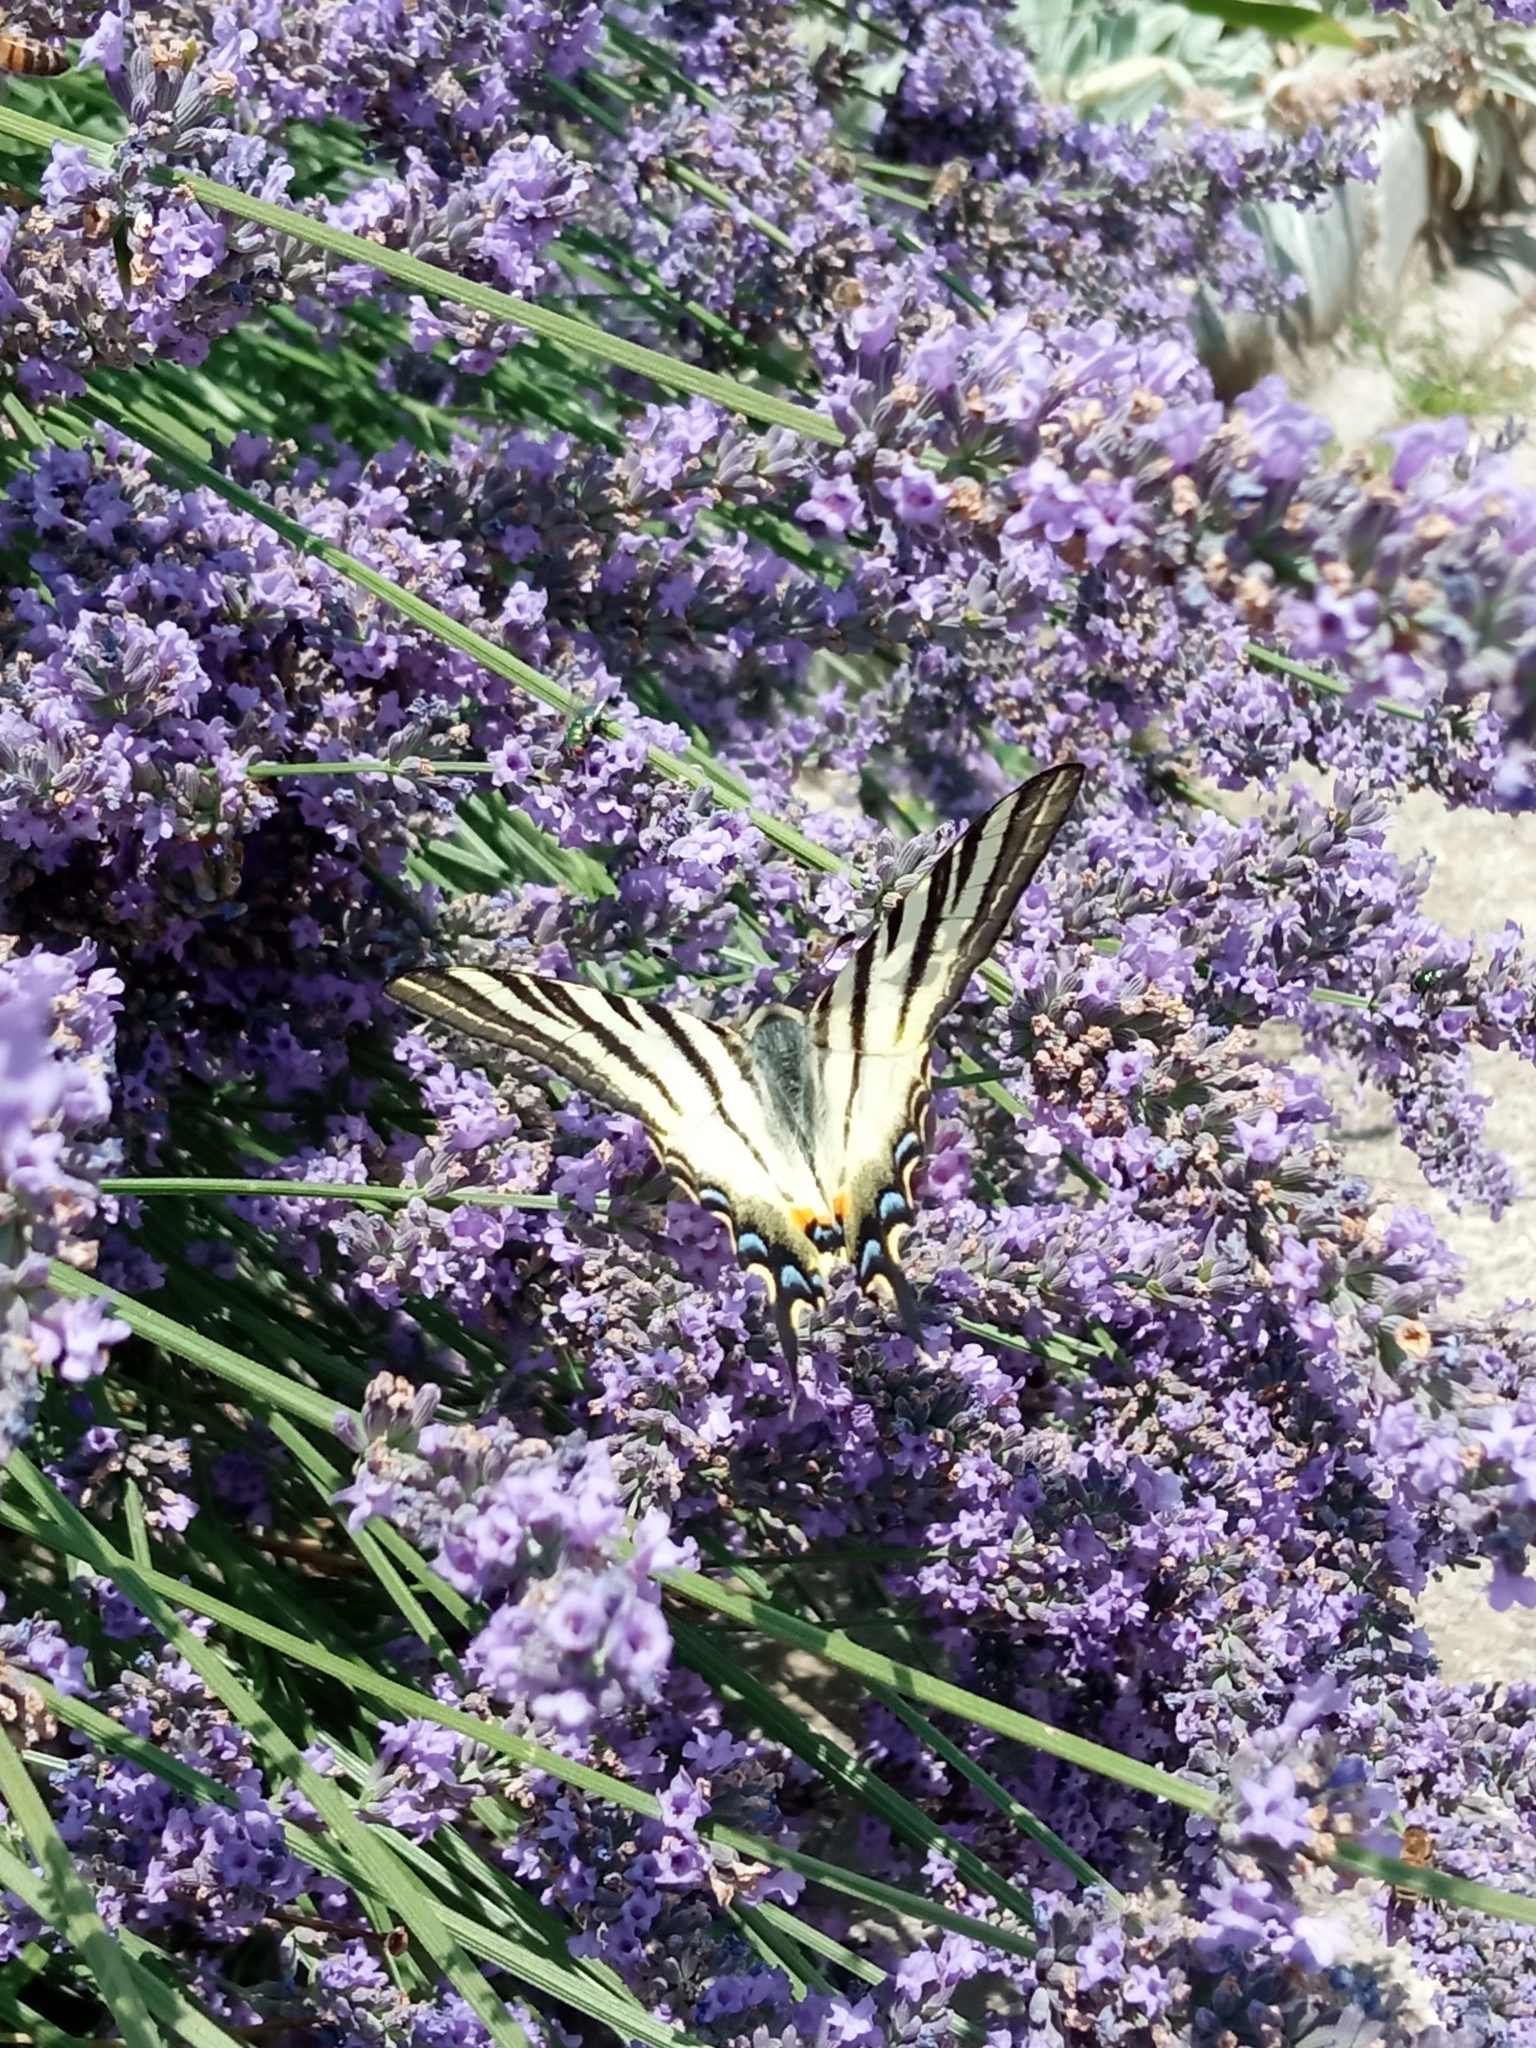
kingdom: Animalia
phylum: Arthropoda
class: Insecta
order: Lepidoptera
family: Papilionidae
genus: Iphiclides
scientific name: Iphiclides podalirius
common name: Scarce swallowtail
